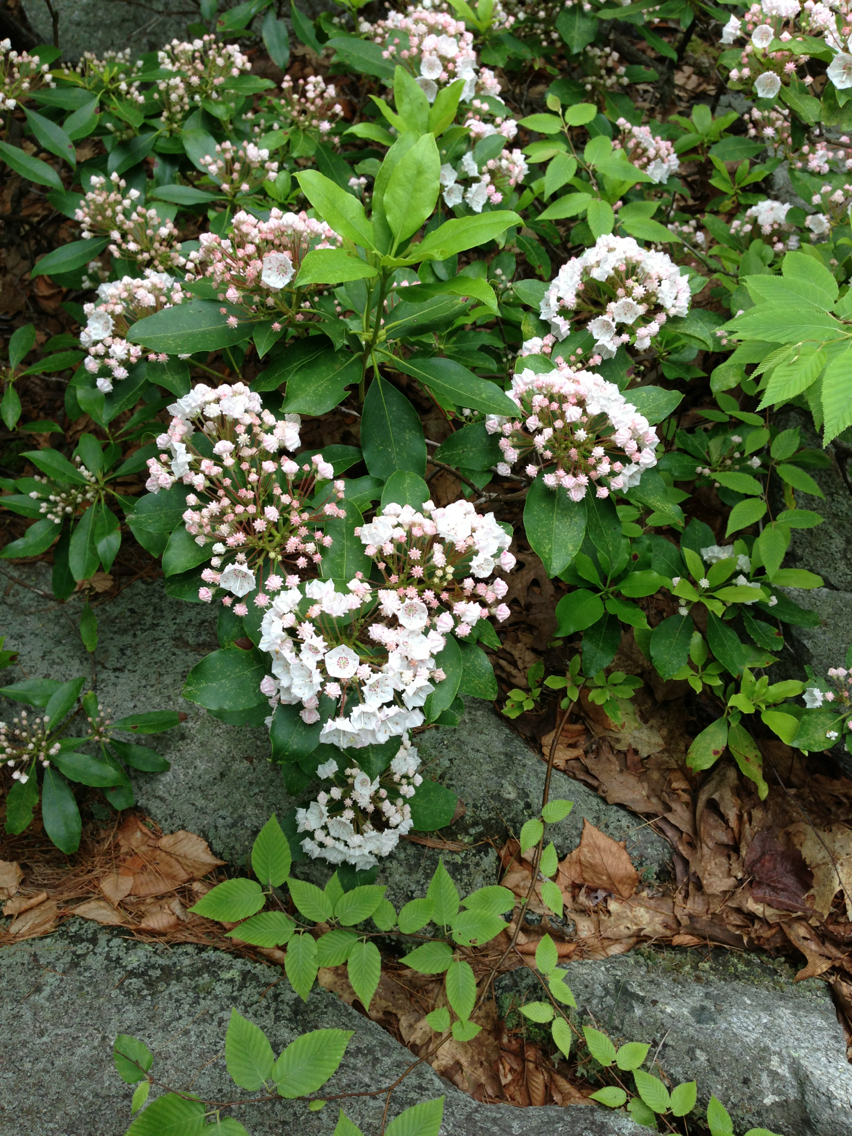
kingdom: Plantae
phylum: Tracheophyta
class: Magnoliopsida
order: Ericales
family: Ericaceae
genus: Kalmia
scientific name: Kalmia latifolia
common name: Mountain-laurel
